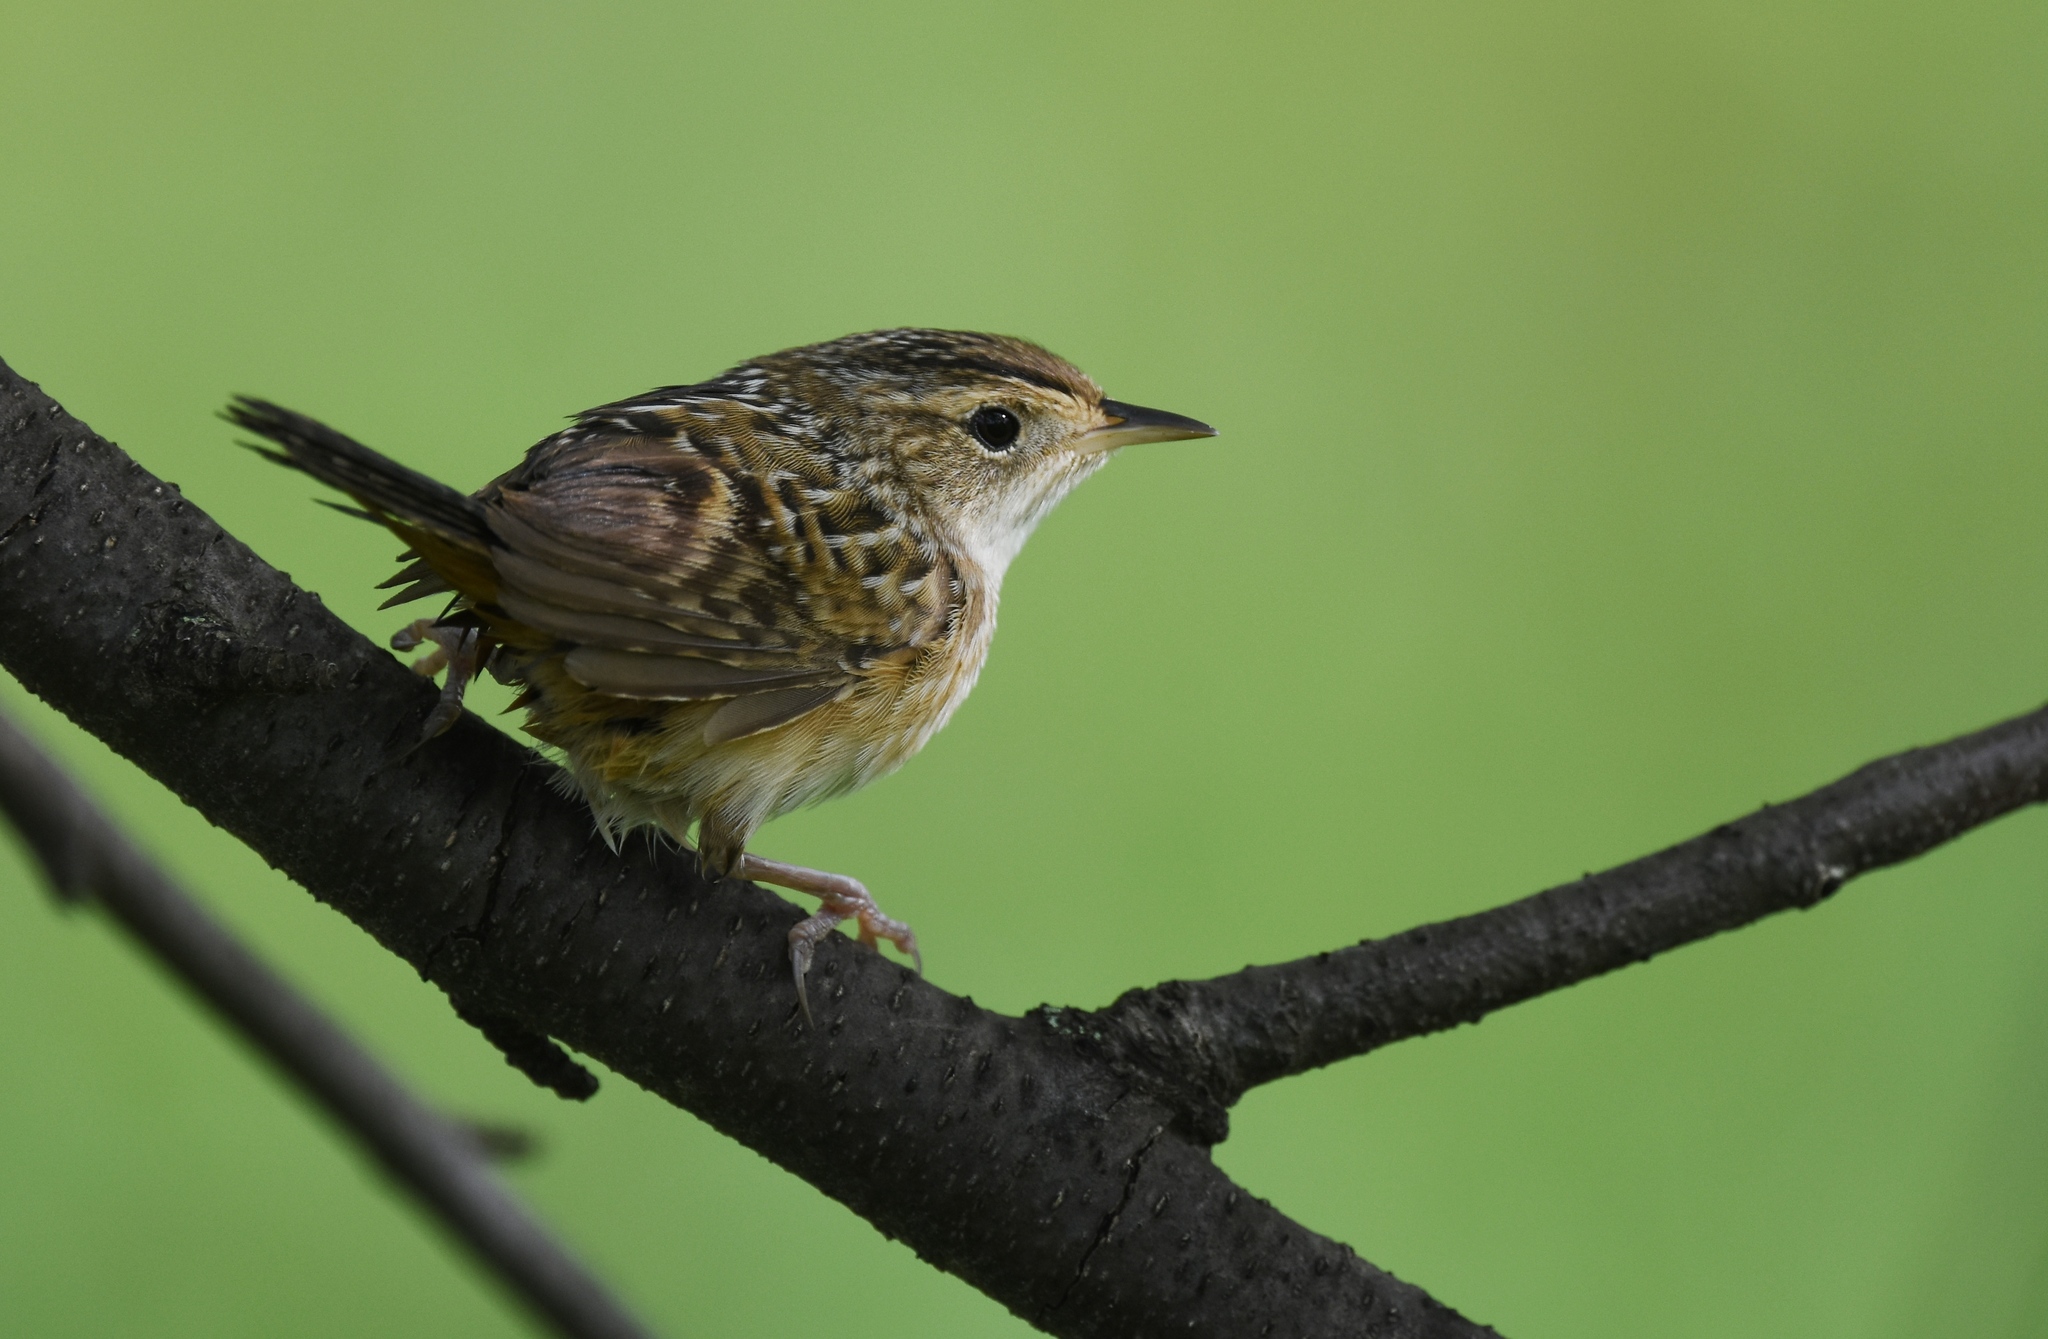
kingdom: Animalia
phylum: Chordata
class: Aves
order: Passeriformes
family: Troglodytidae
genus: Cistothorus
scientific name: Cistothorus platensis
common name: Sedge wren
